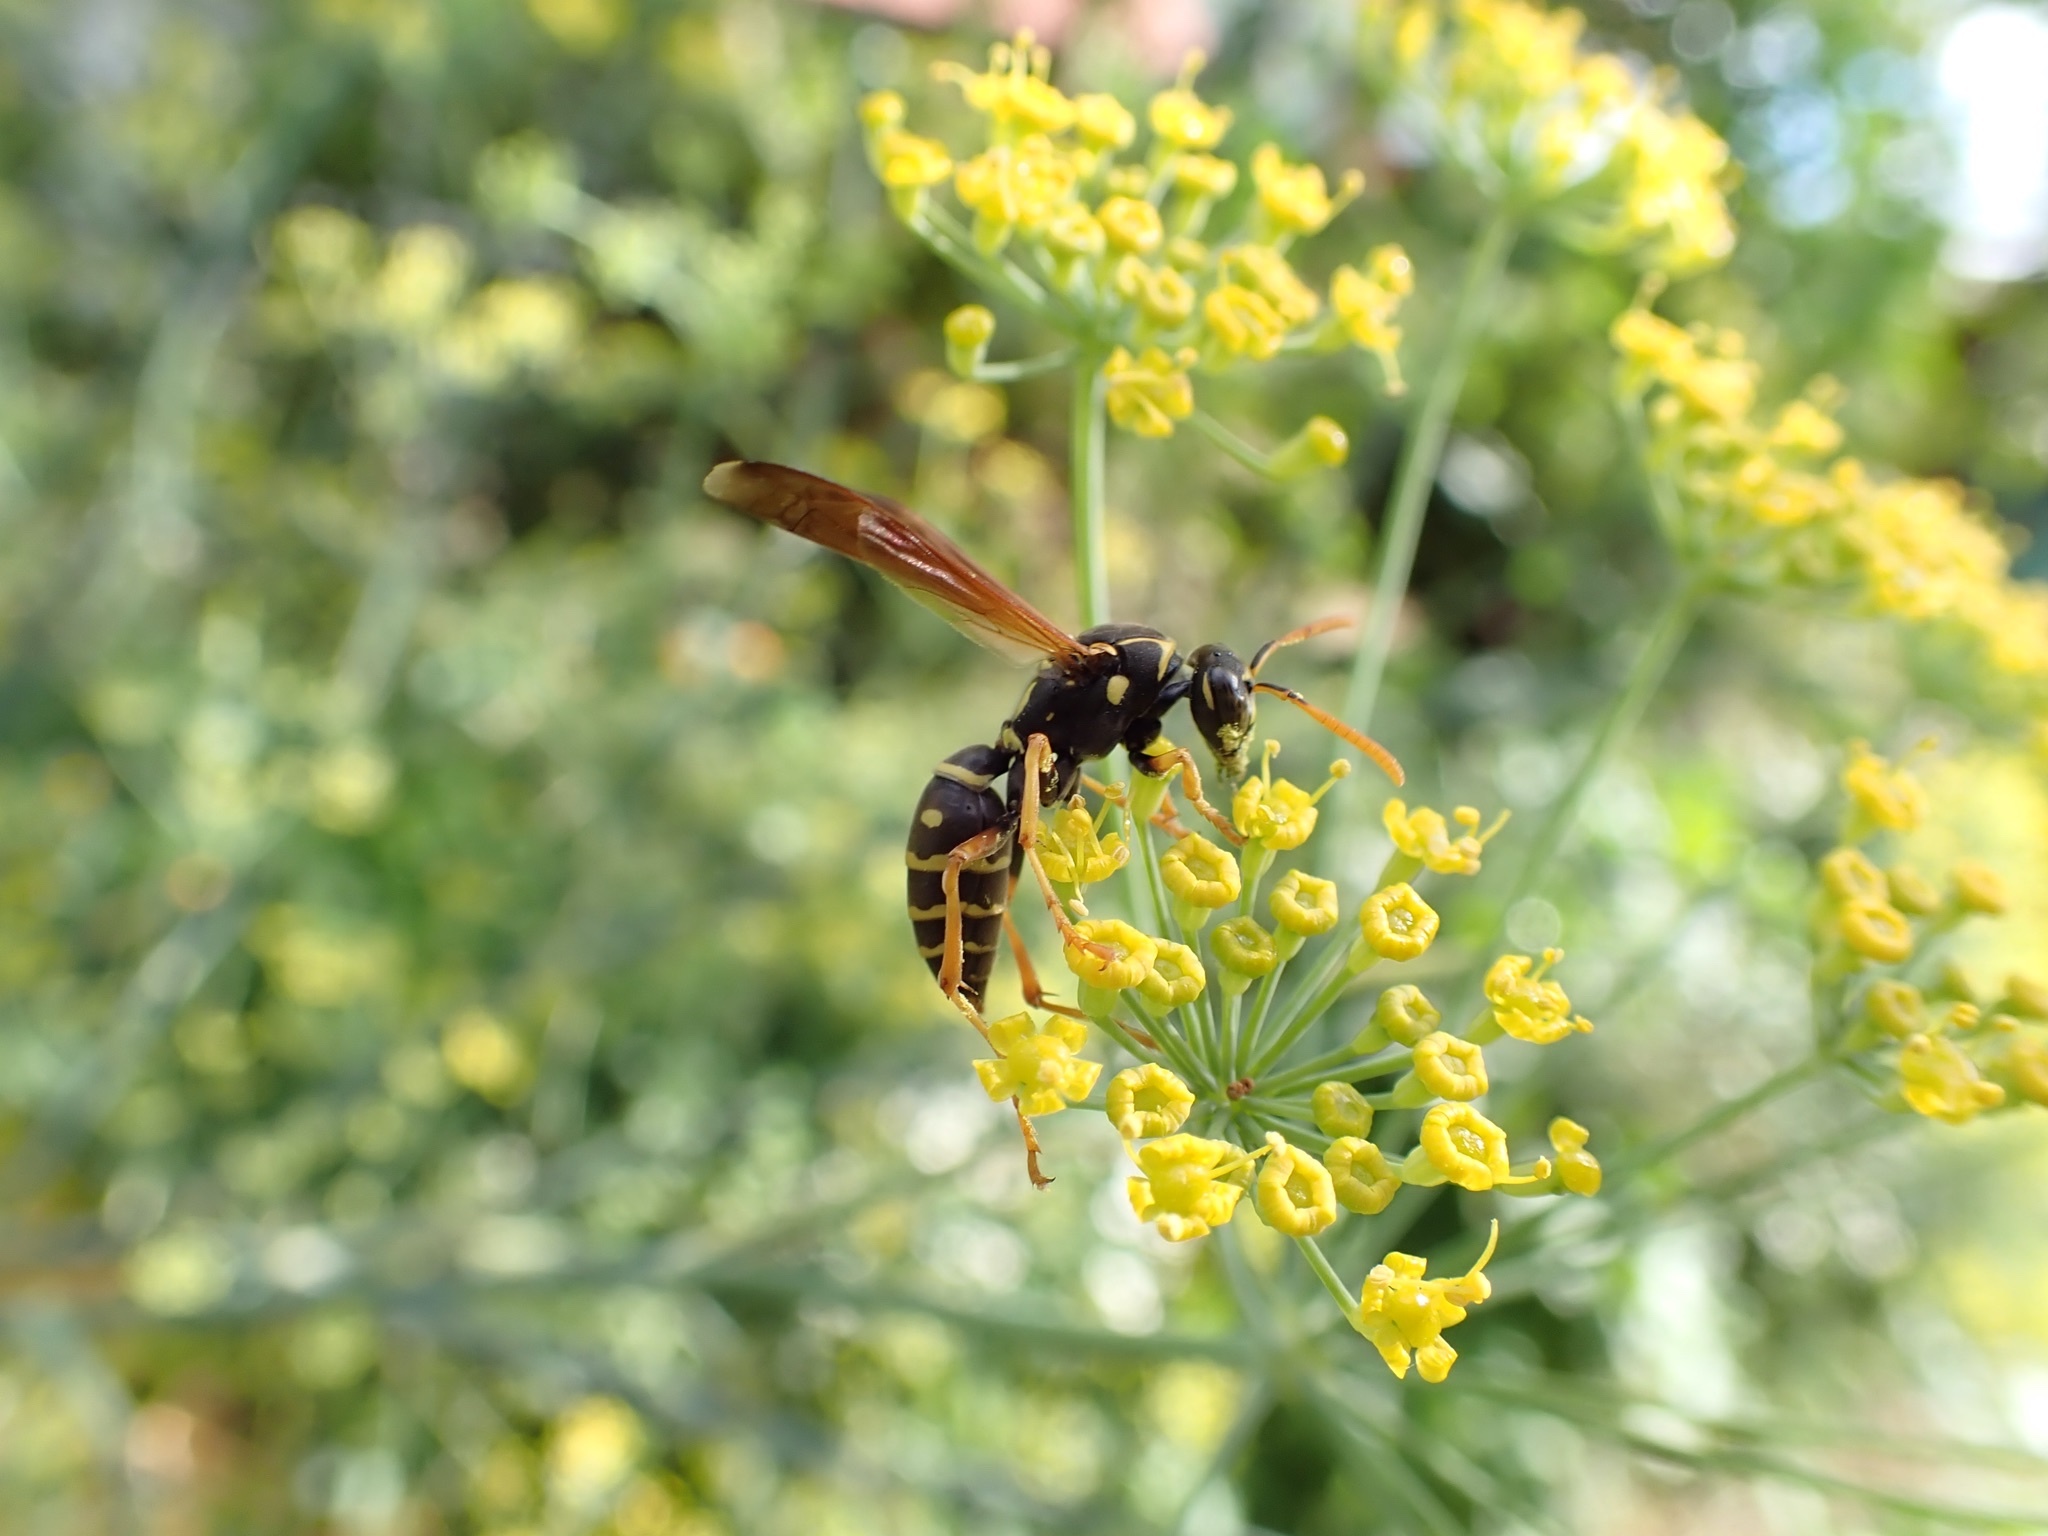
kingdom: Animalia
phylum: Arthropoda
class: Insecta
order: Hymenoptera
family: Eumenidae
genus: Polistes
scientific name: Polistes chinensis
